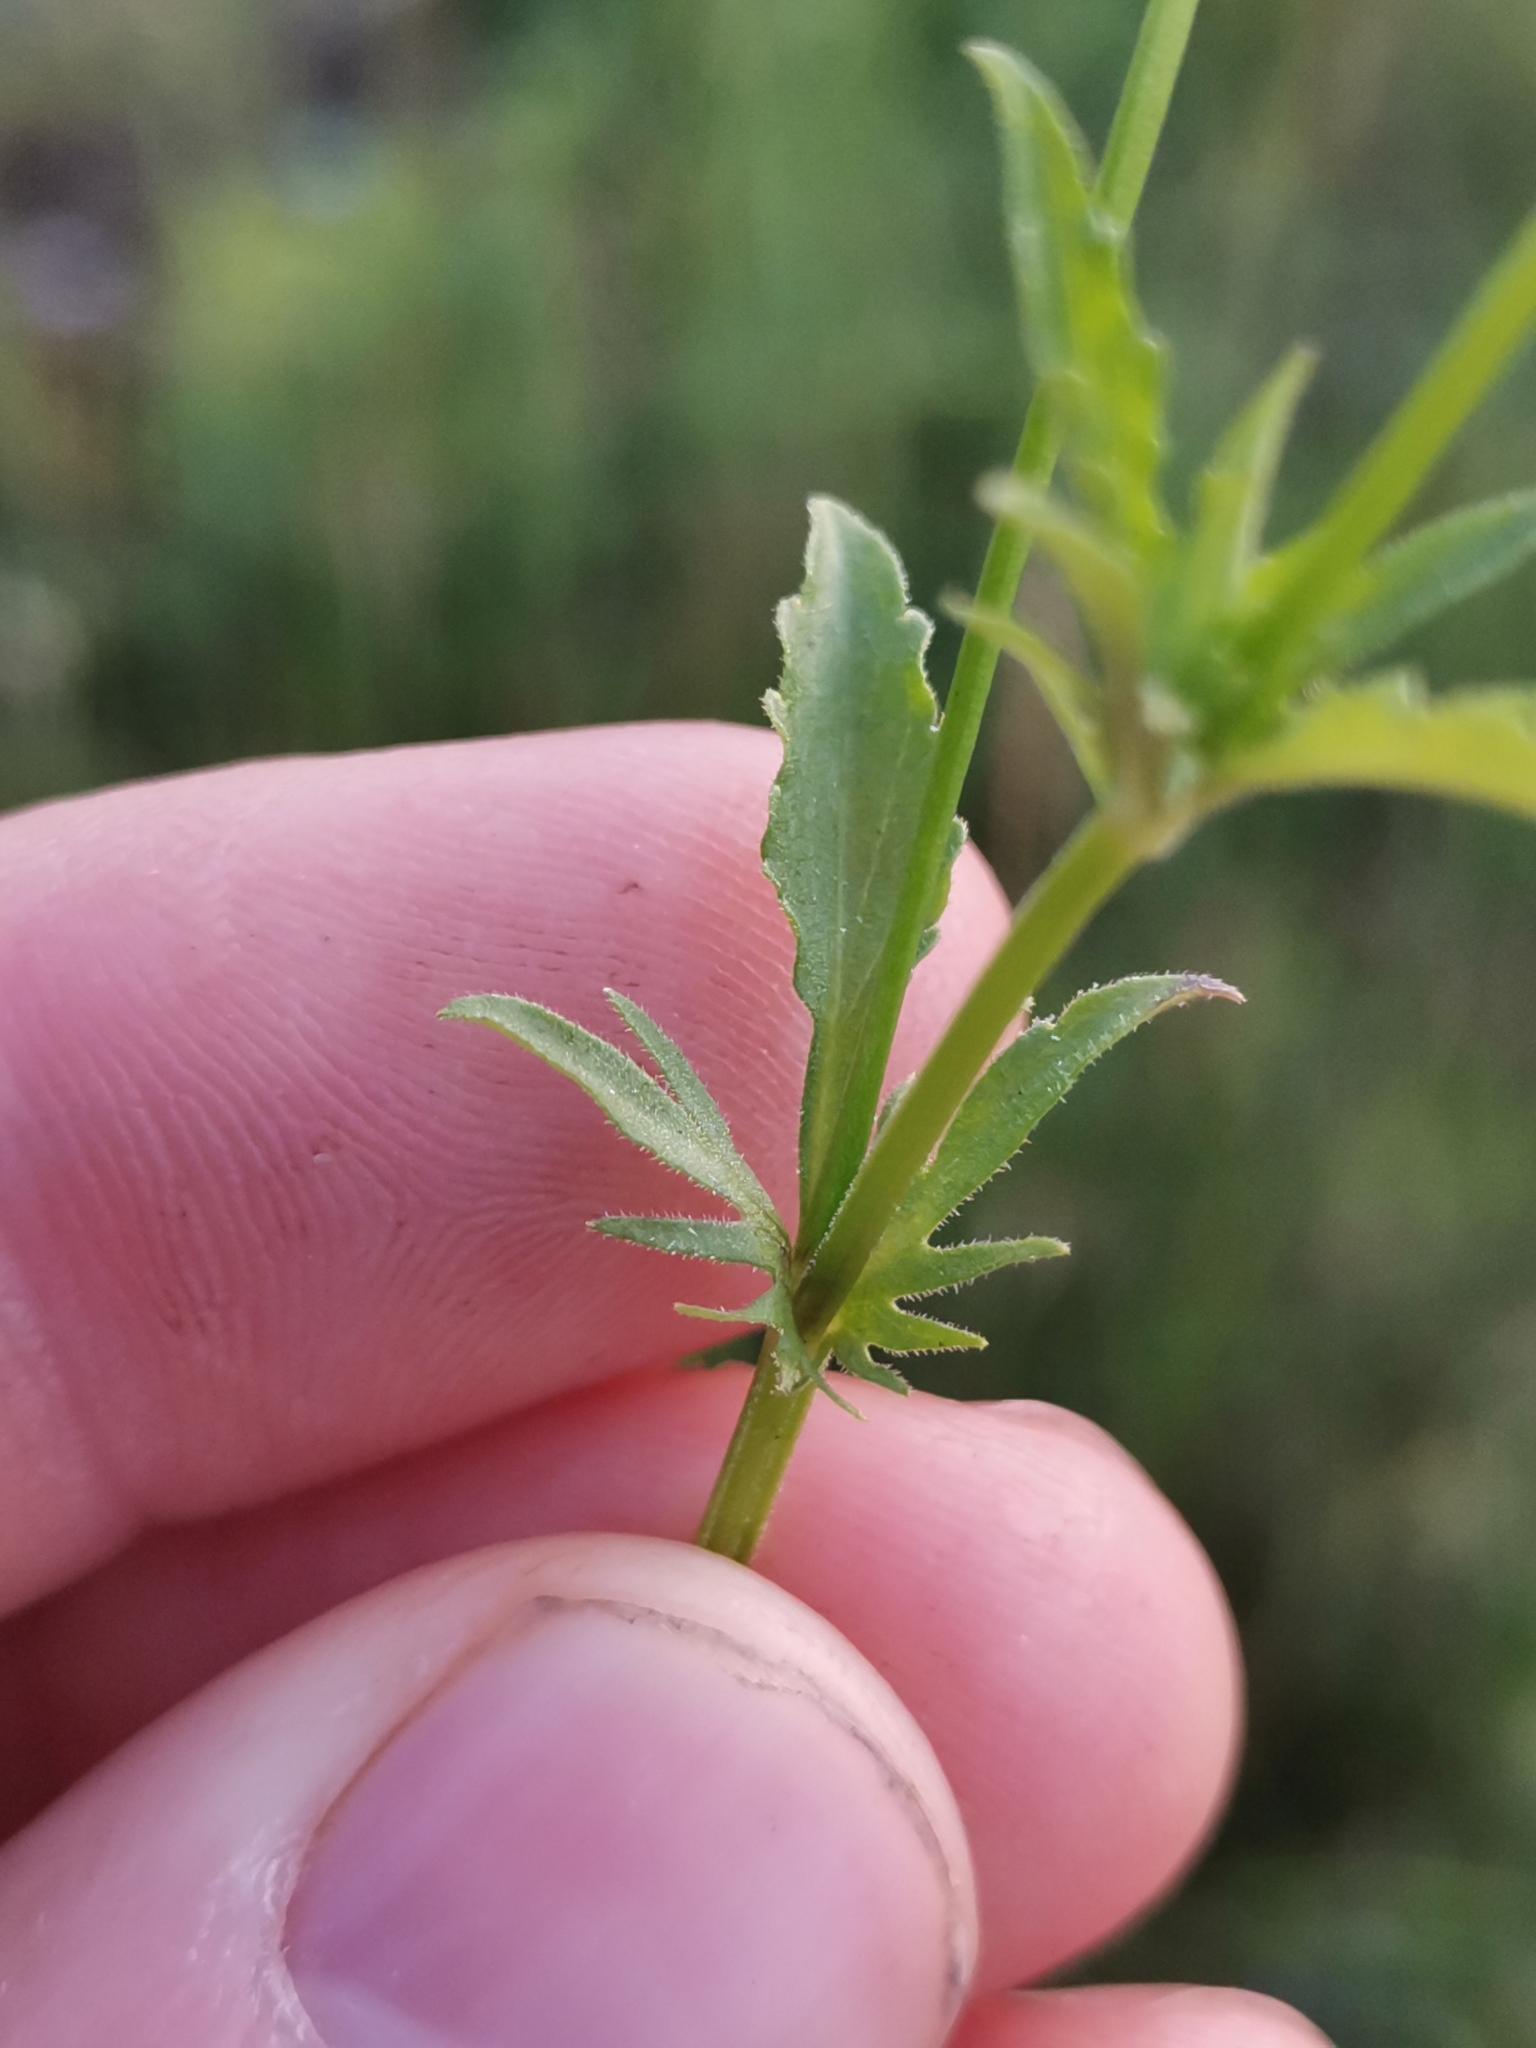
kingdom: Plantae
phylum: Tracheophyta
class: Magnoliopsida
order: Malpighiales
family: Violaceae
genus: Viola
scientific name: Viola tricolor
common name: Pansy
